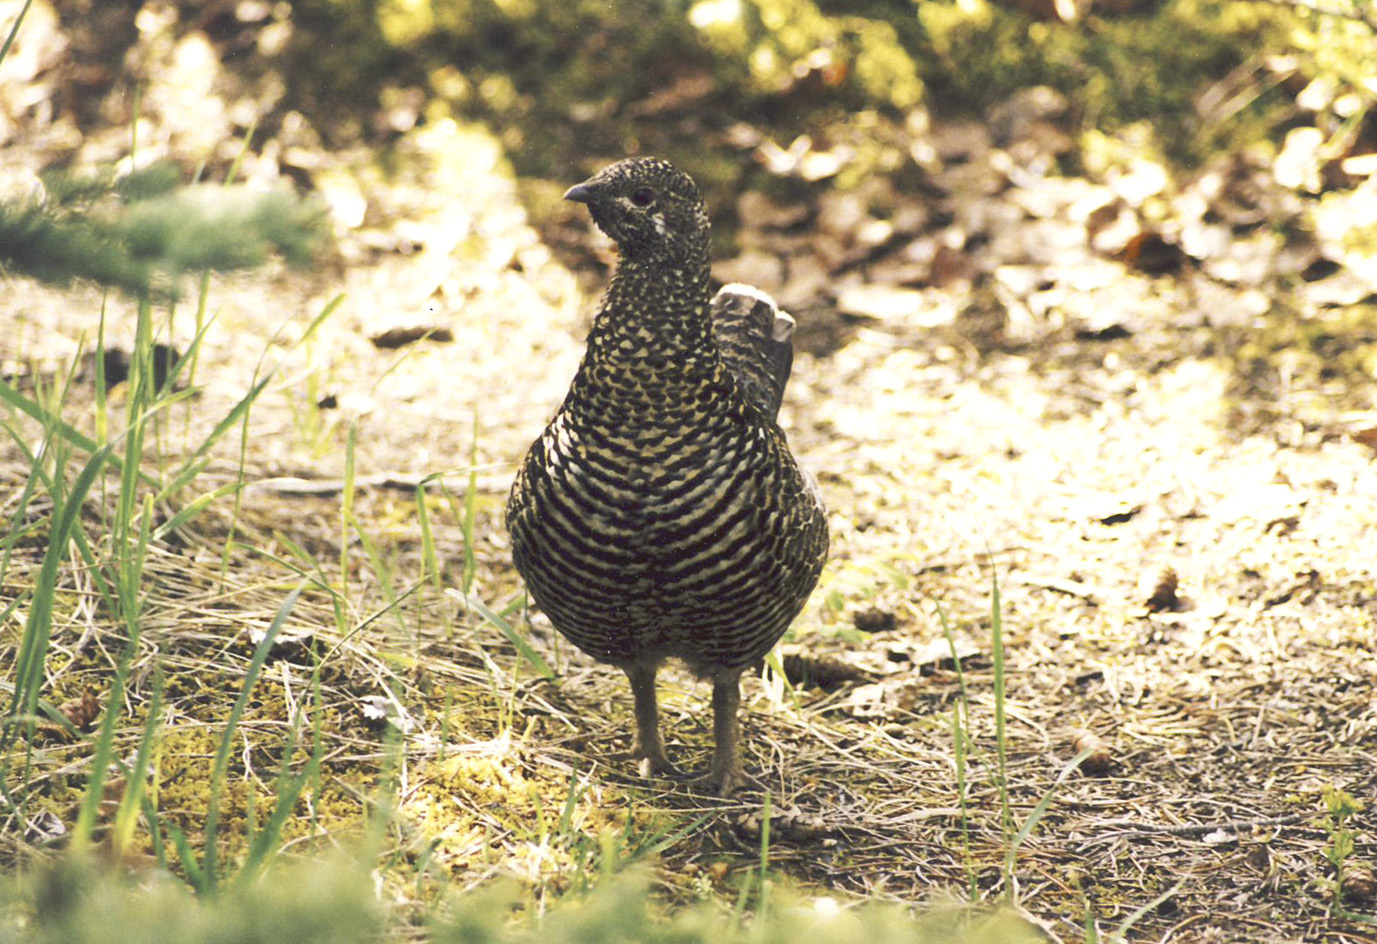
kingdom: Animalia
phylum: Chordata
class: Aves
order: Galliformes
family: Phasianidae
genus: Canachites
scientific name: Canachites canadensis
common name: Spruce grouse
